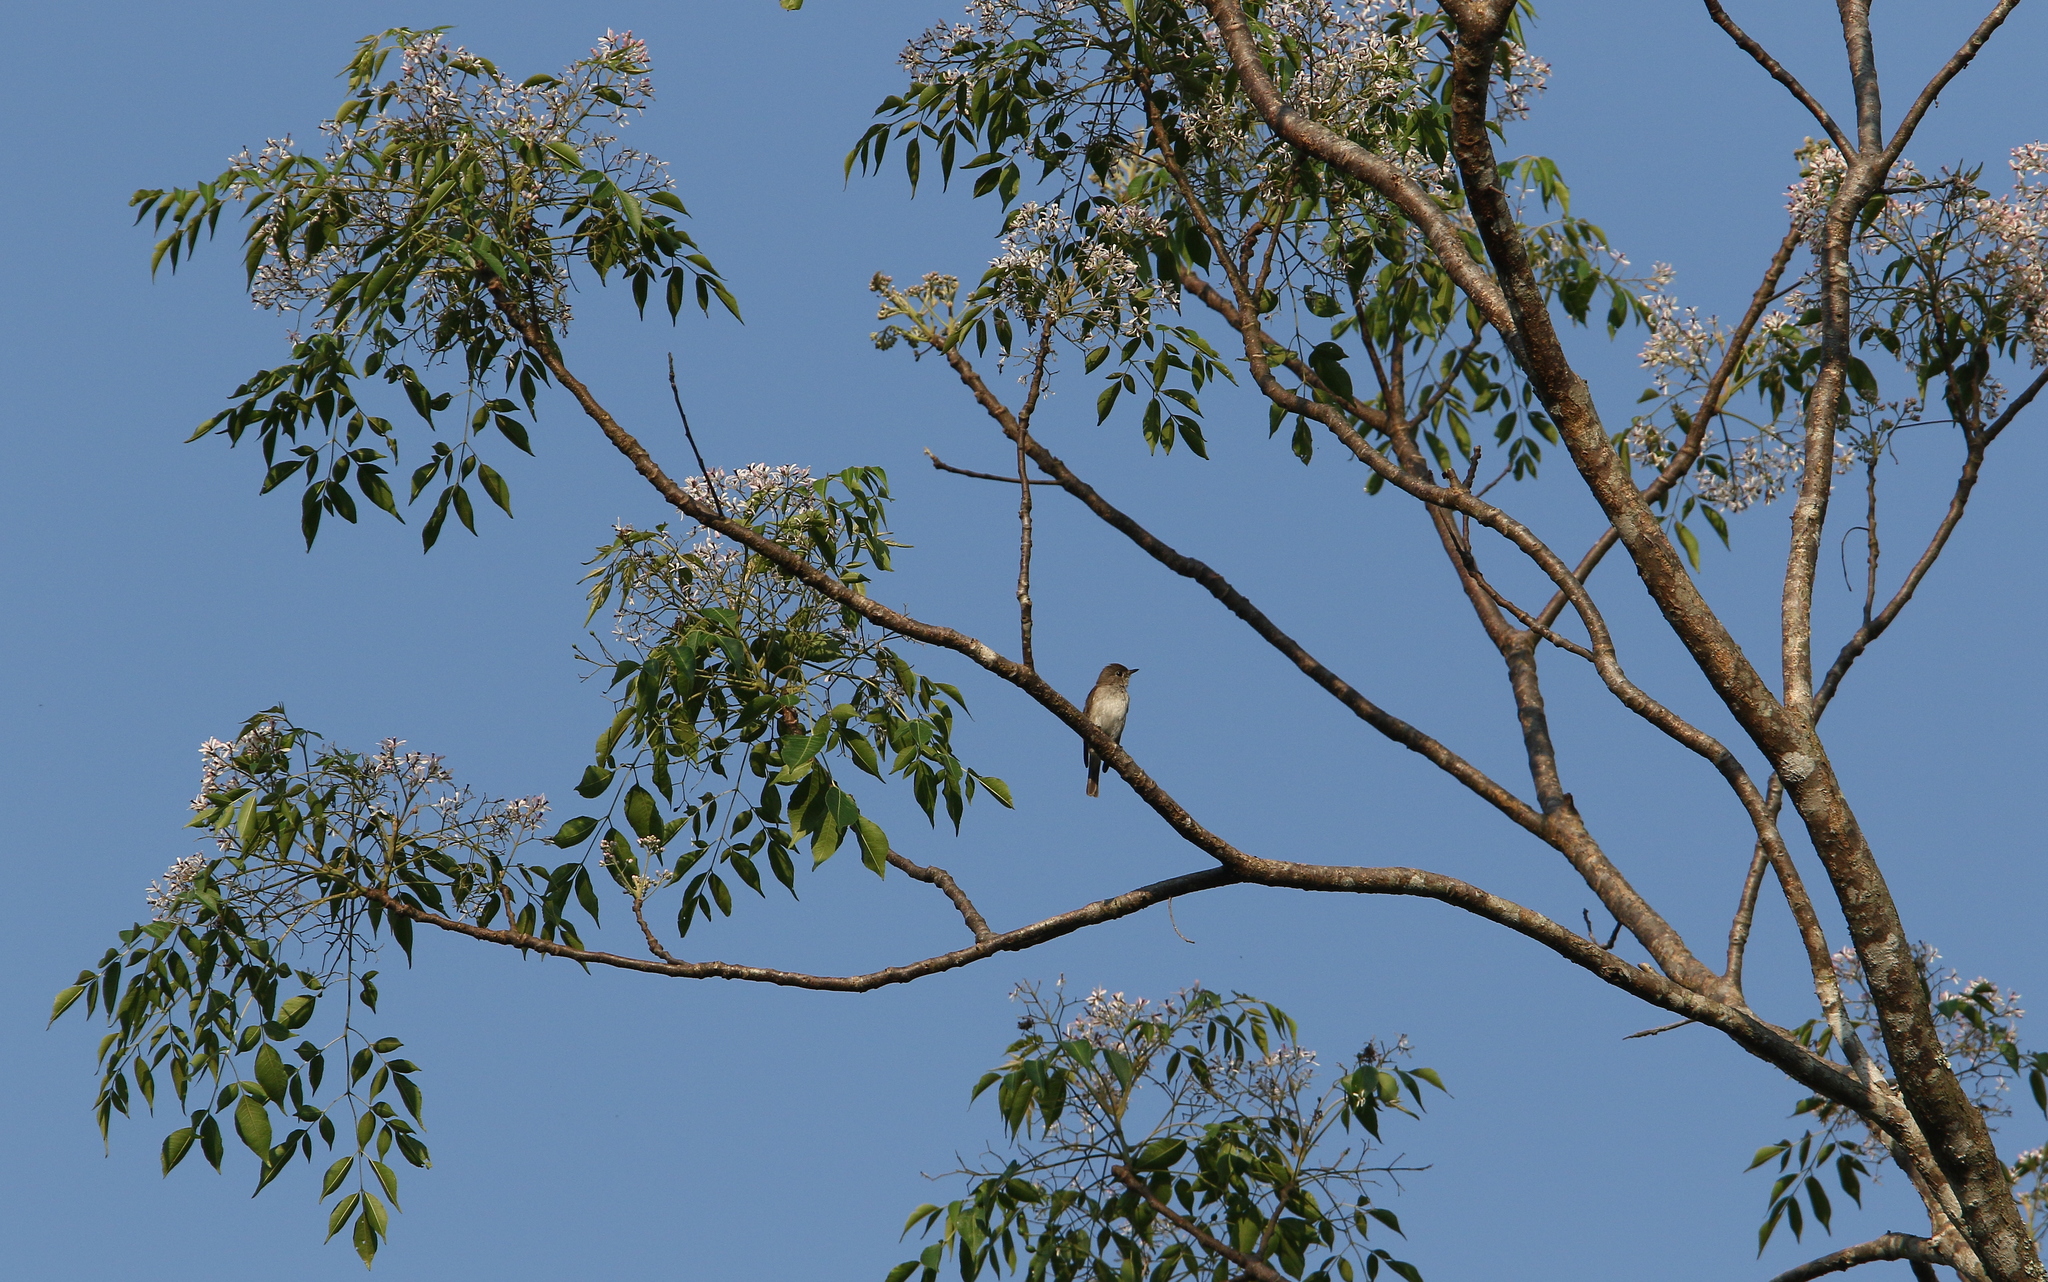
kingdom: Animalia
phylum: Chordata
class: Aves
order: Passeriformes
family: Muscicapidae
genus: Muscicapa
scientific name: Muscicapa latirostris
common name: Asian brown flycatcher
